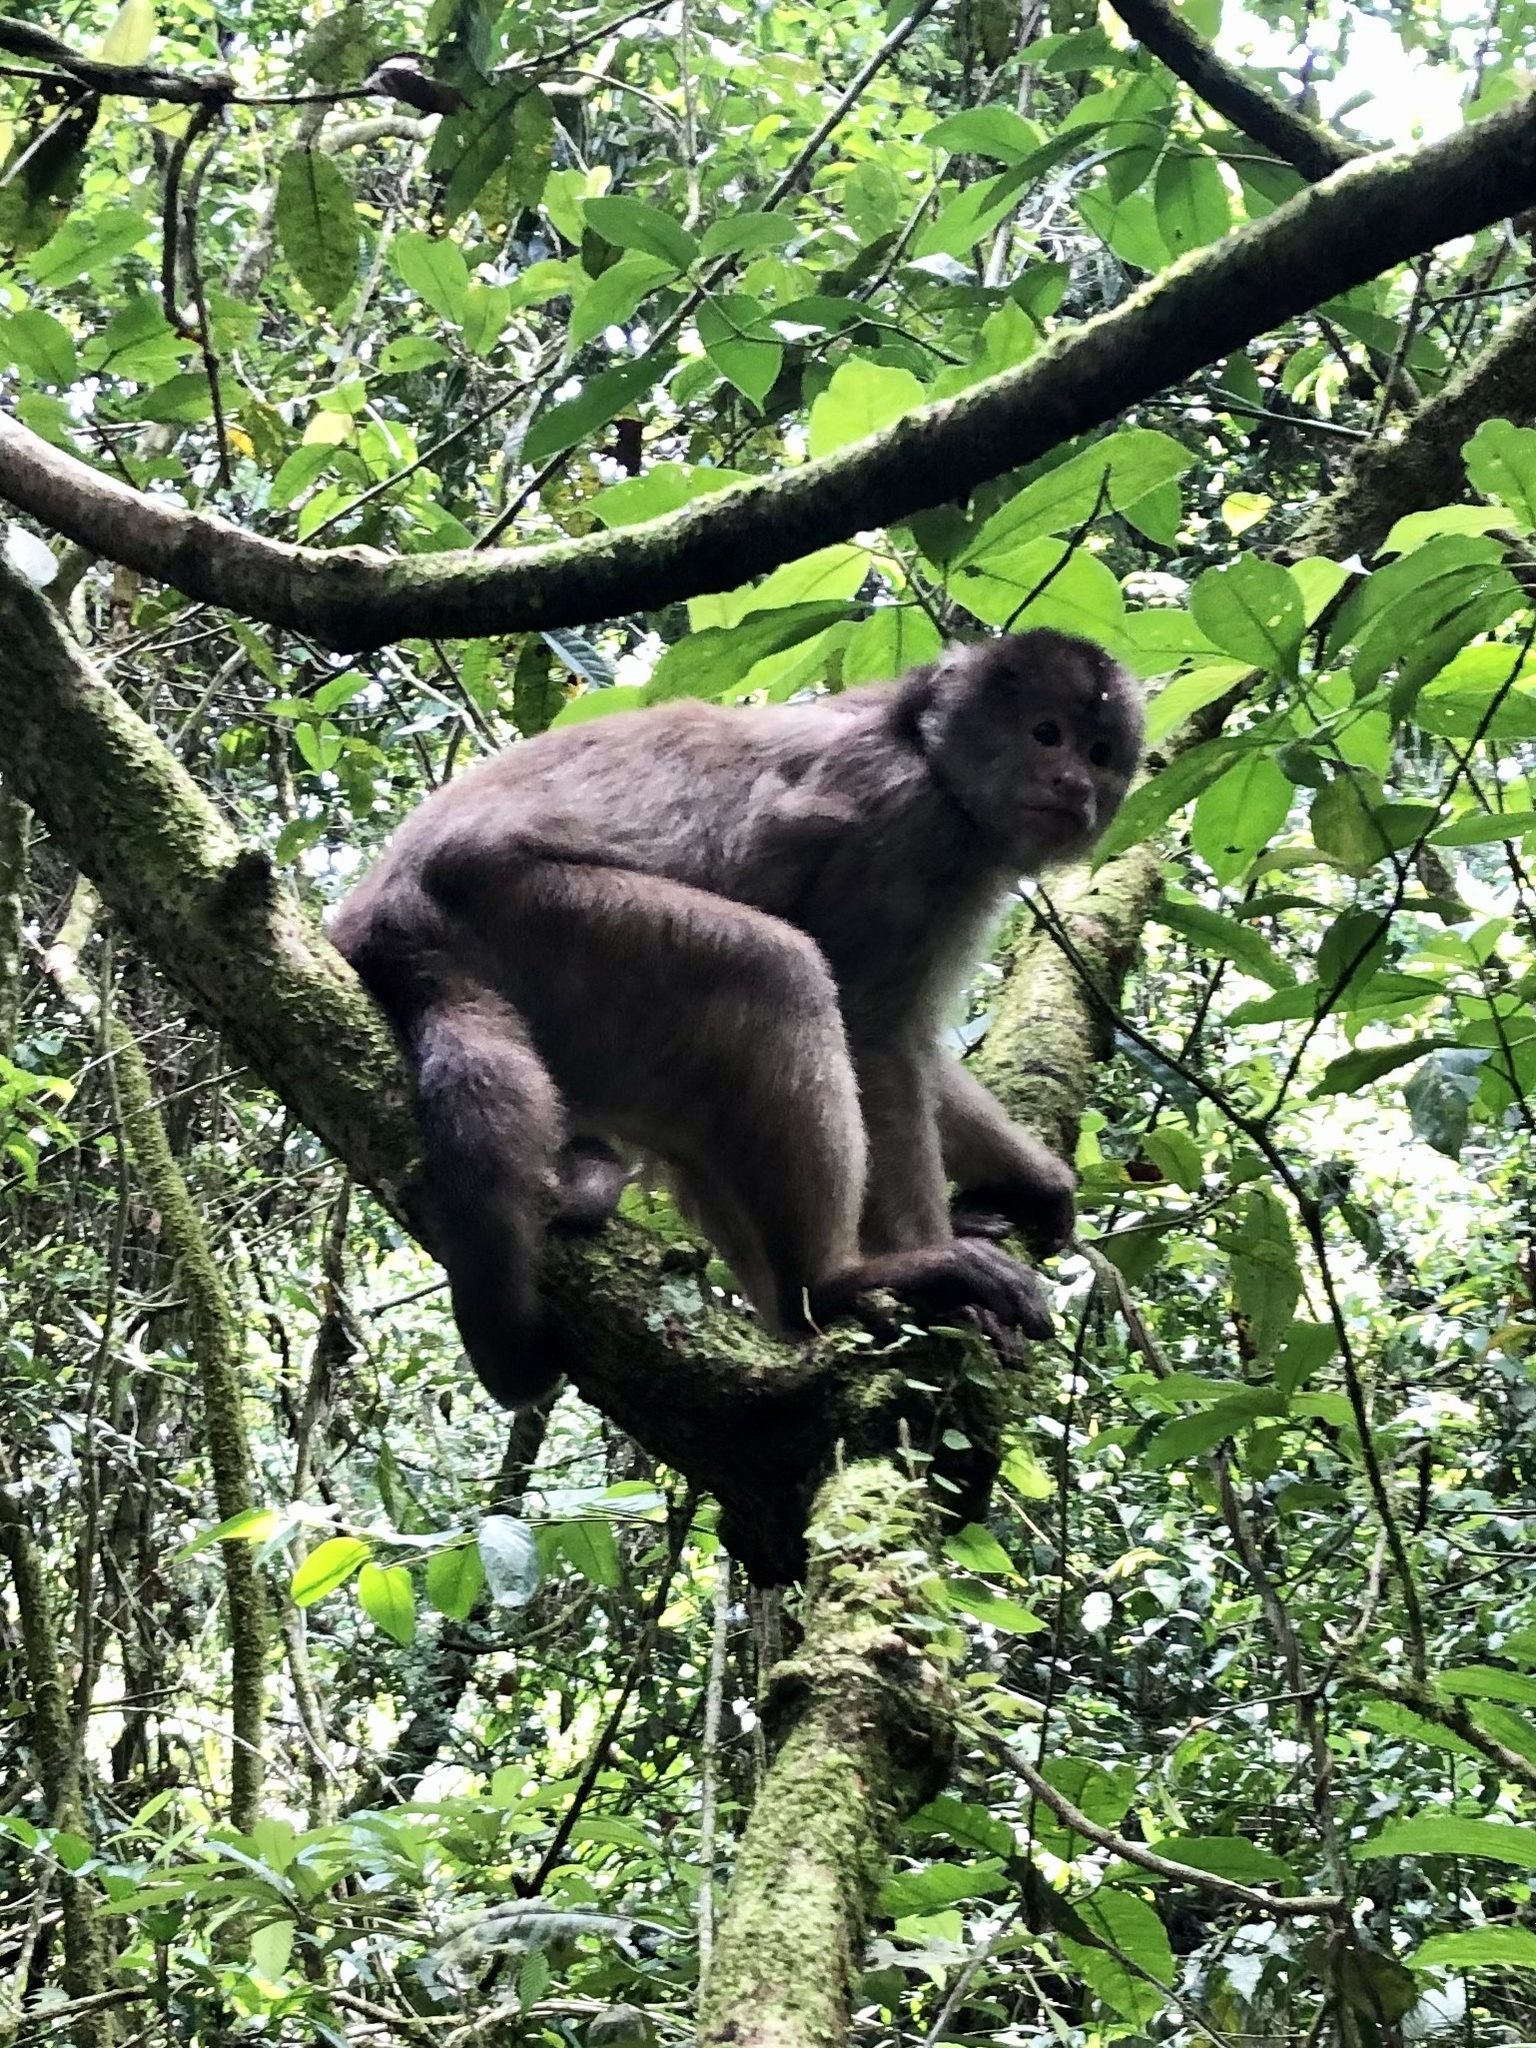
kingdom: Animalia
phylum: Chordata
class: Mammalia
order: Primates
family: Cebidae
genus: Cebus
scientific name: Cebus yuracus
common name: Peruvian white-fronted capuchin
